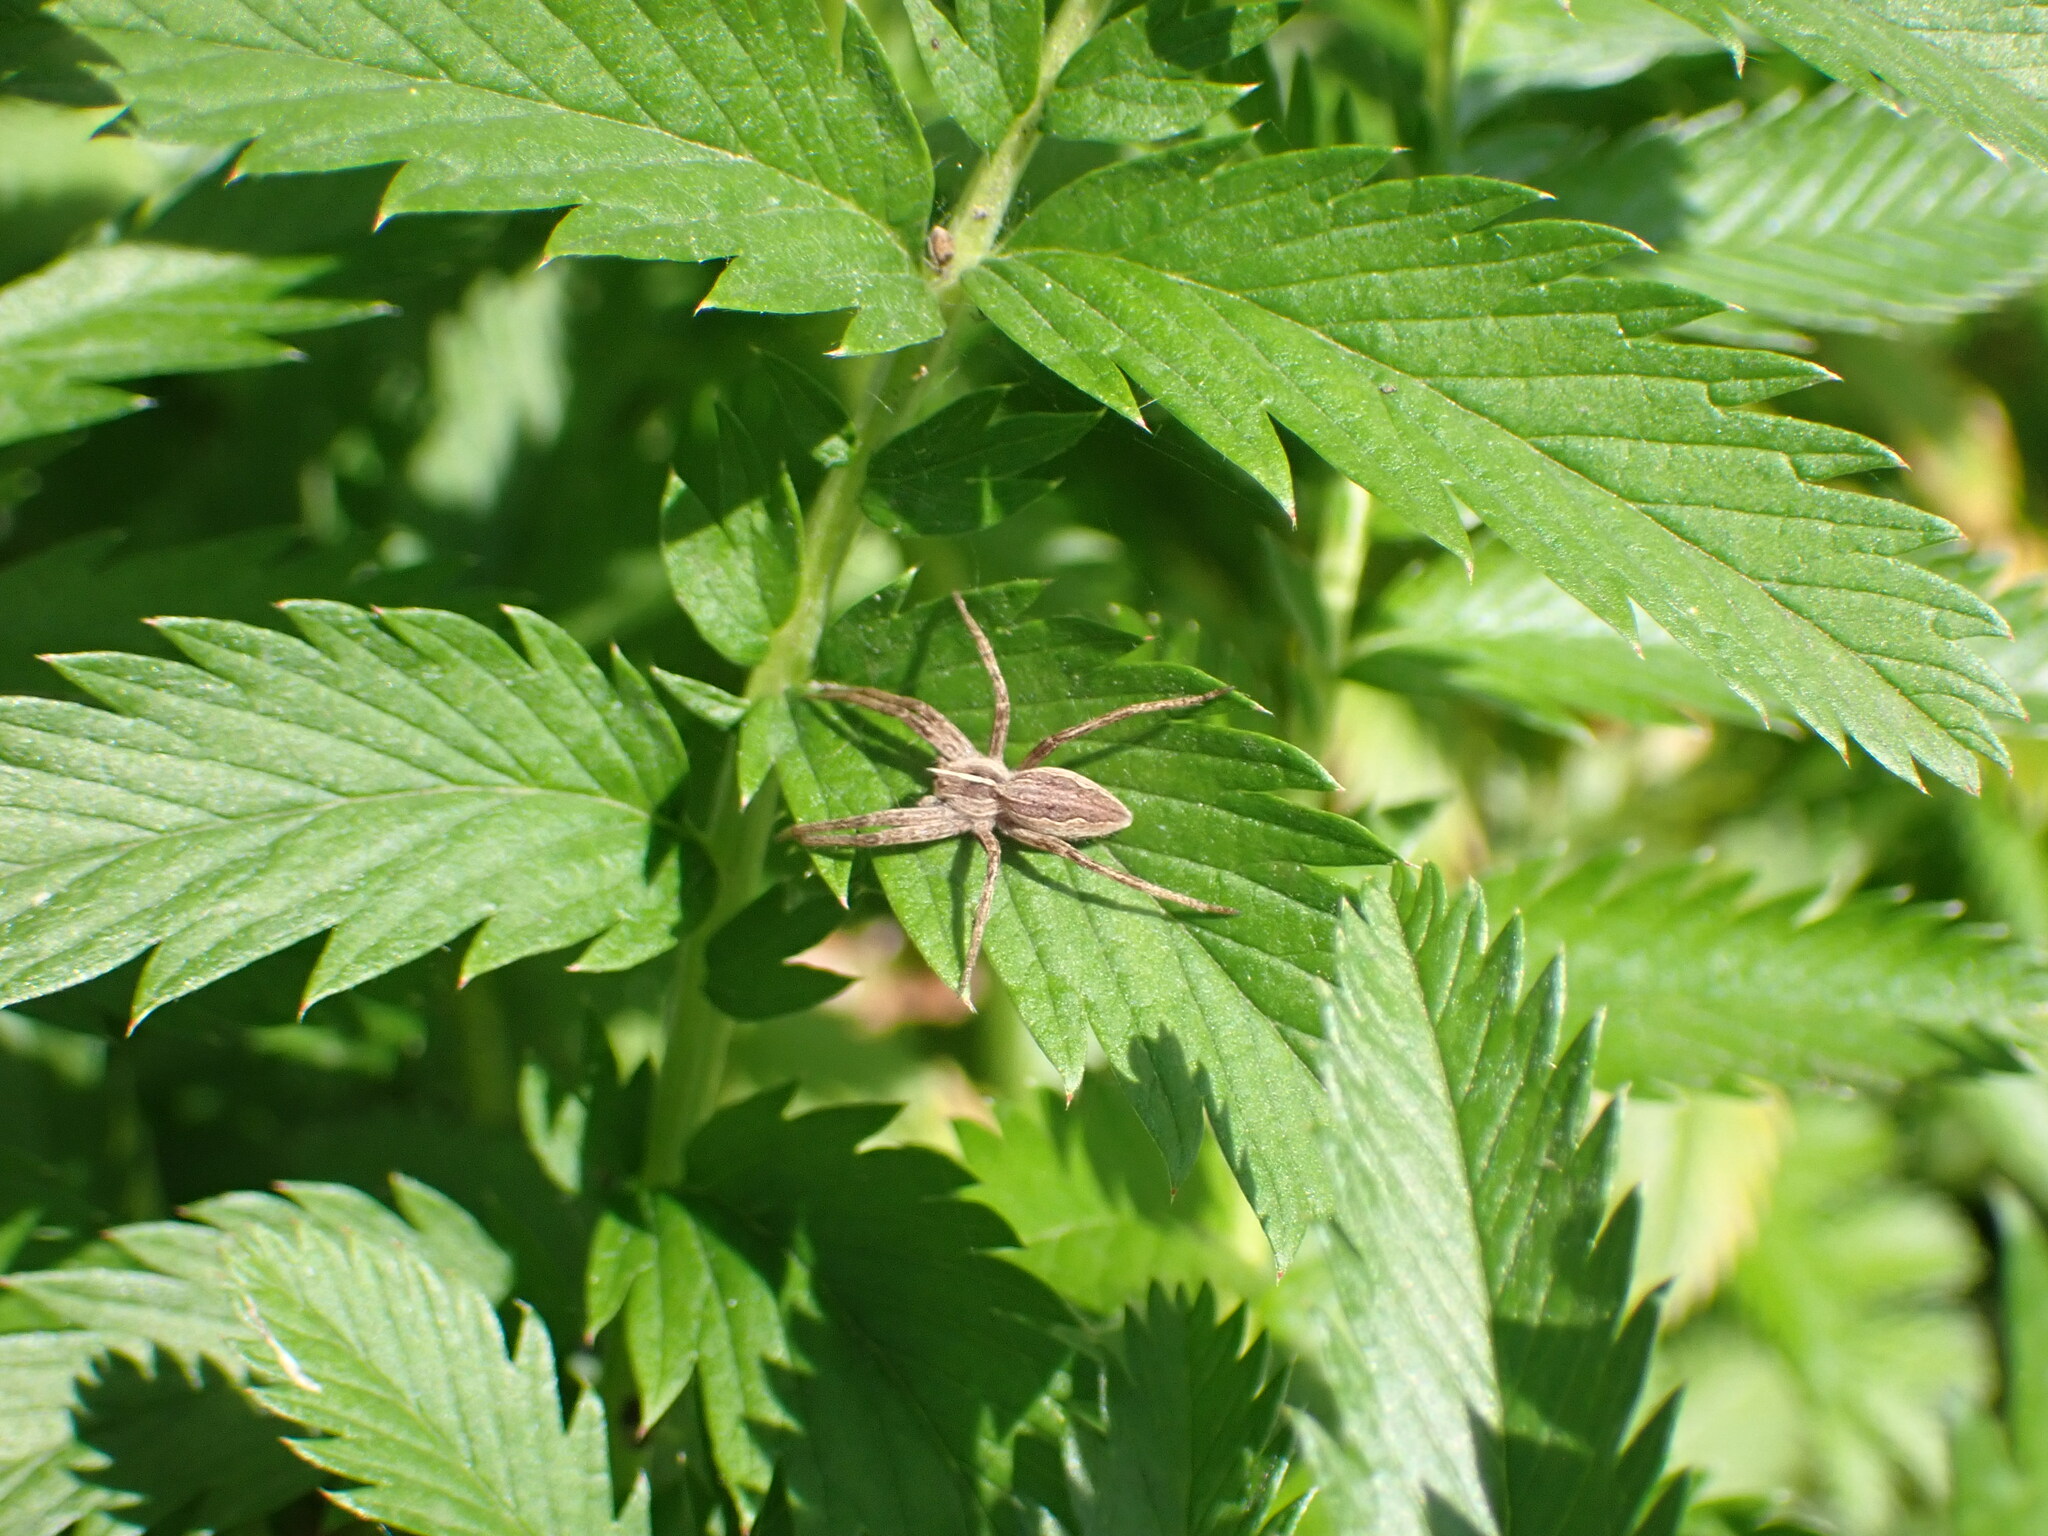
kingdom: Animalia
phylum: Arthropoda
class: Arachnida
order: Araneae
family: Pisauridae
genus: Pisaura
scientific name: Pisaura mirabilis
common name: Tent spider
